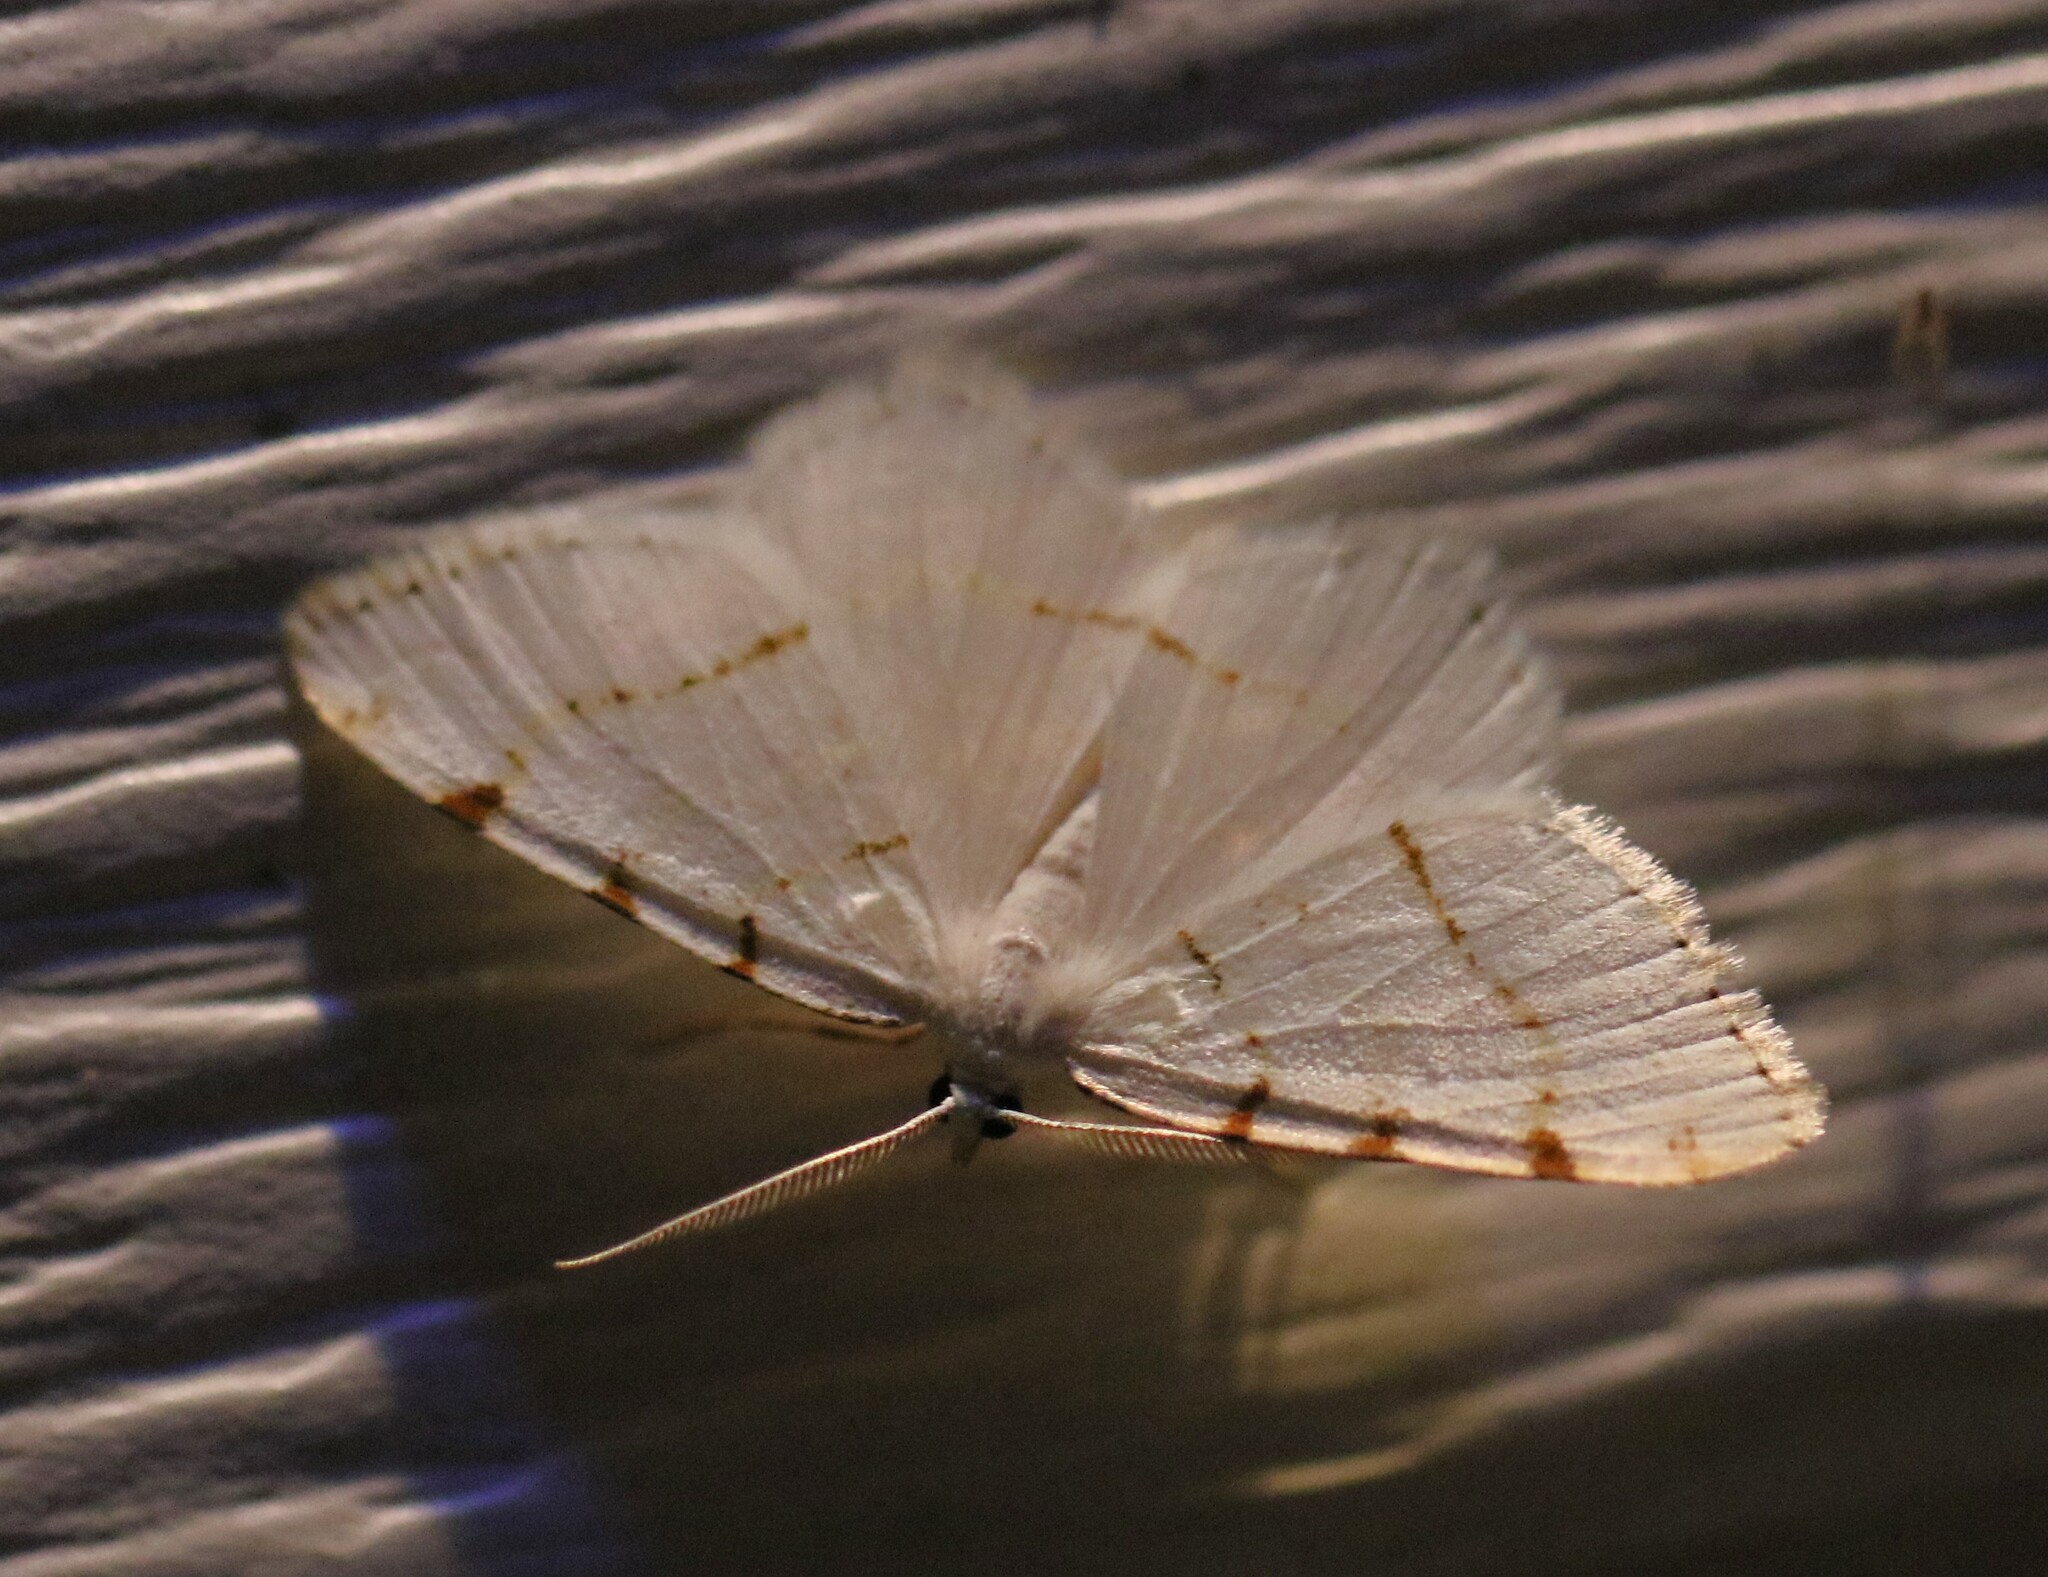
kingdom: Animalia
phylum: Arthropoda
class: Insecta
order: Lepidoptera
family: Geometridae
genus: Macaria
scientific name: Macaria pustularia
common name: Lesser maple spanworm moth
